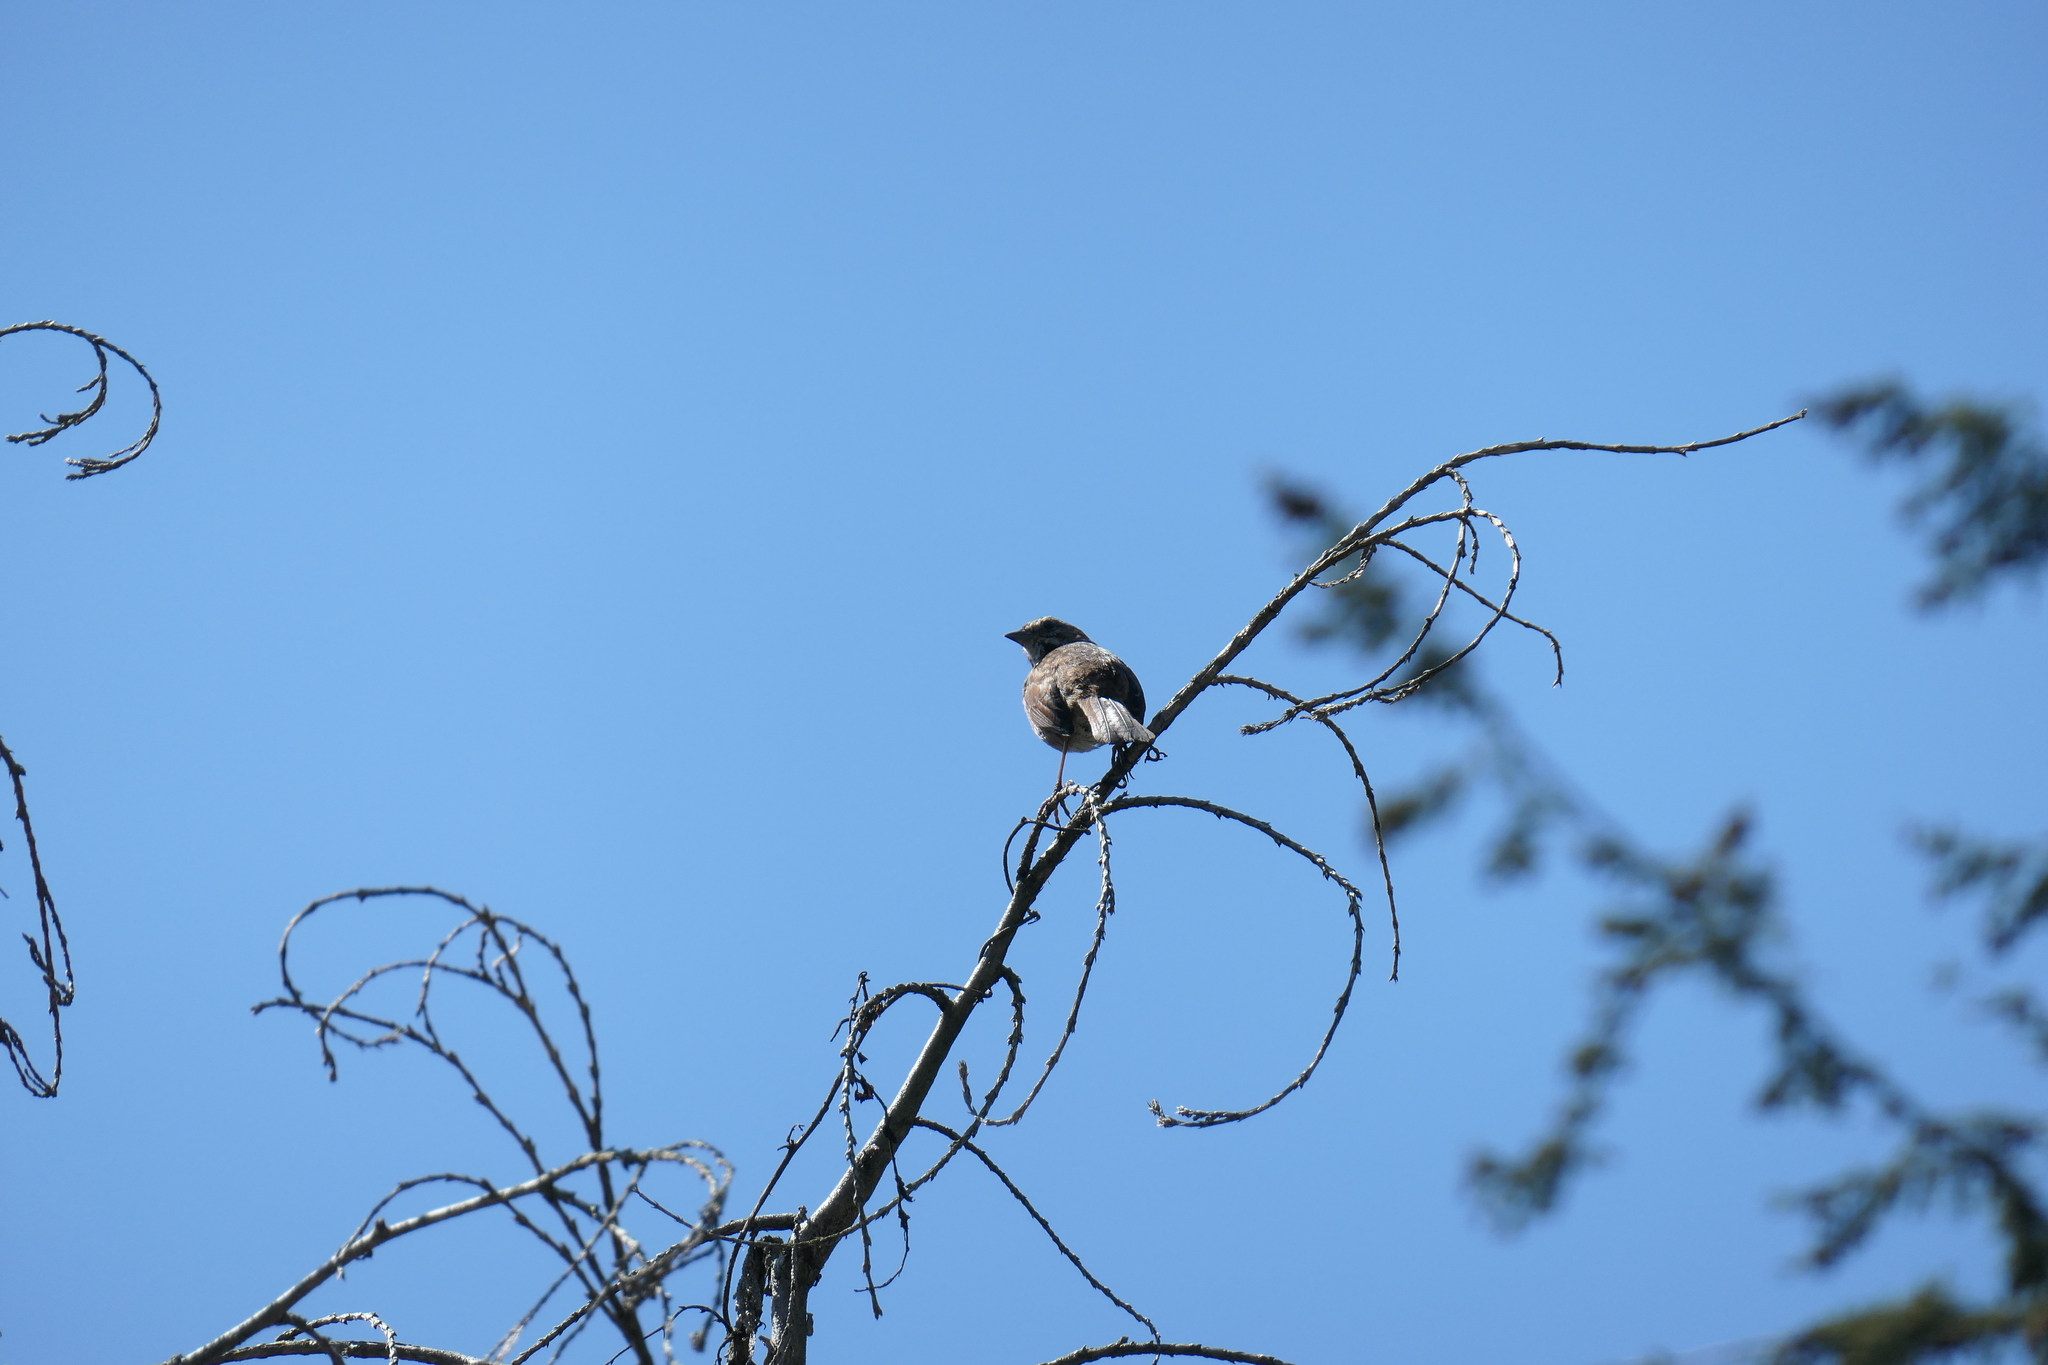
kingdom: Animalia
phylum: Chordata
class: Aves
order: Passeriformes
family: Passerellidae
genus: Melospiza
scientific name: Melospiza melodia
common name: Song sparrow
